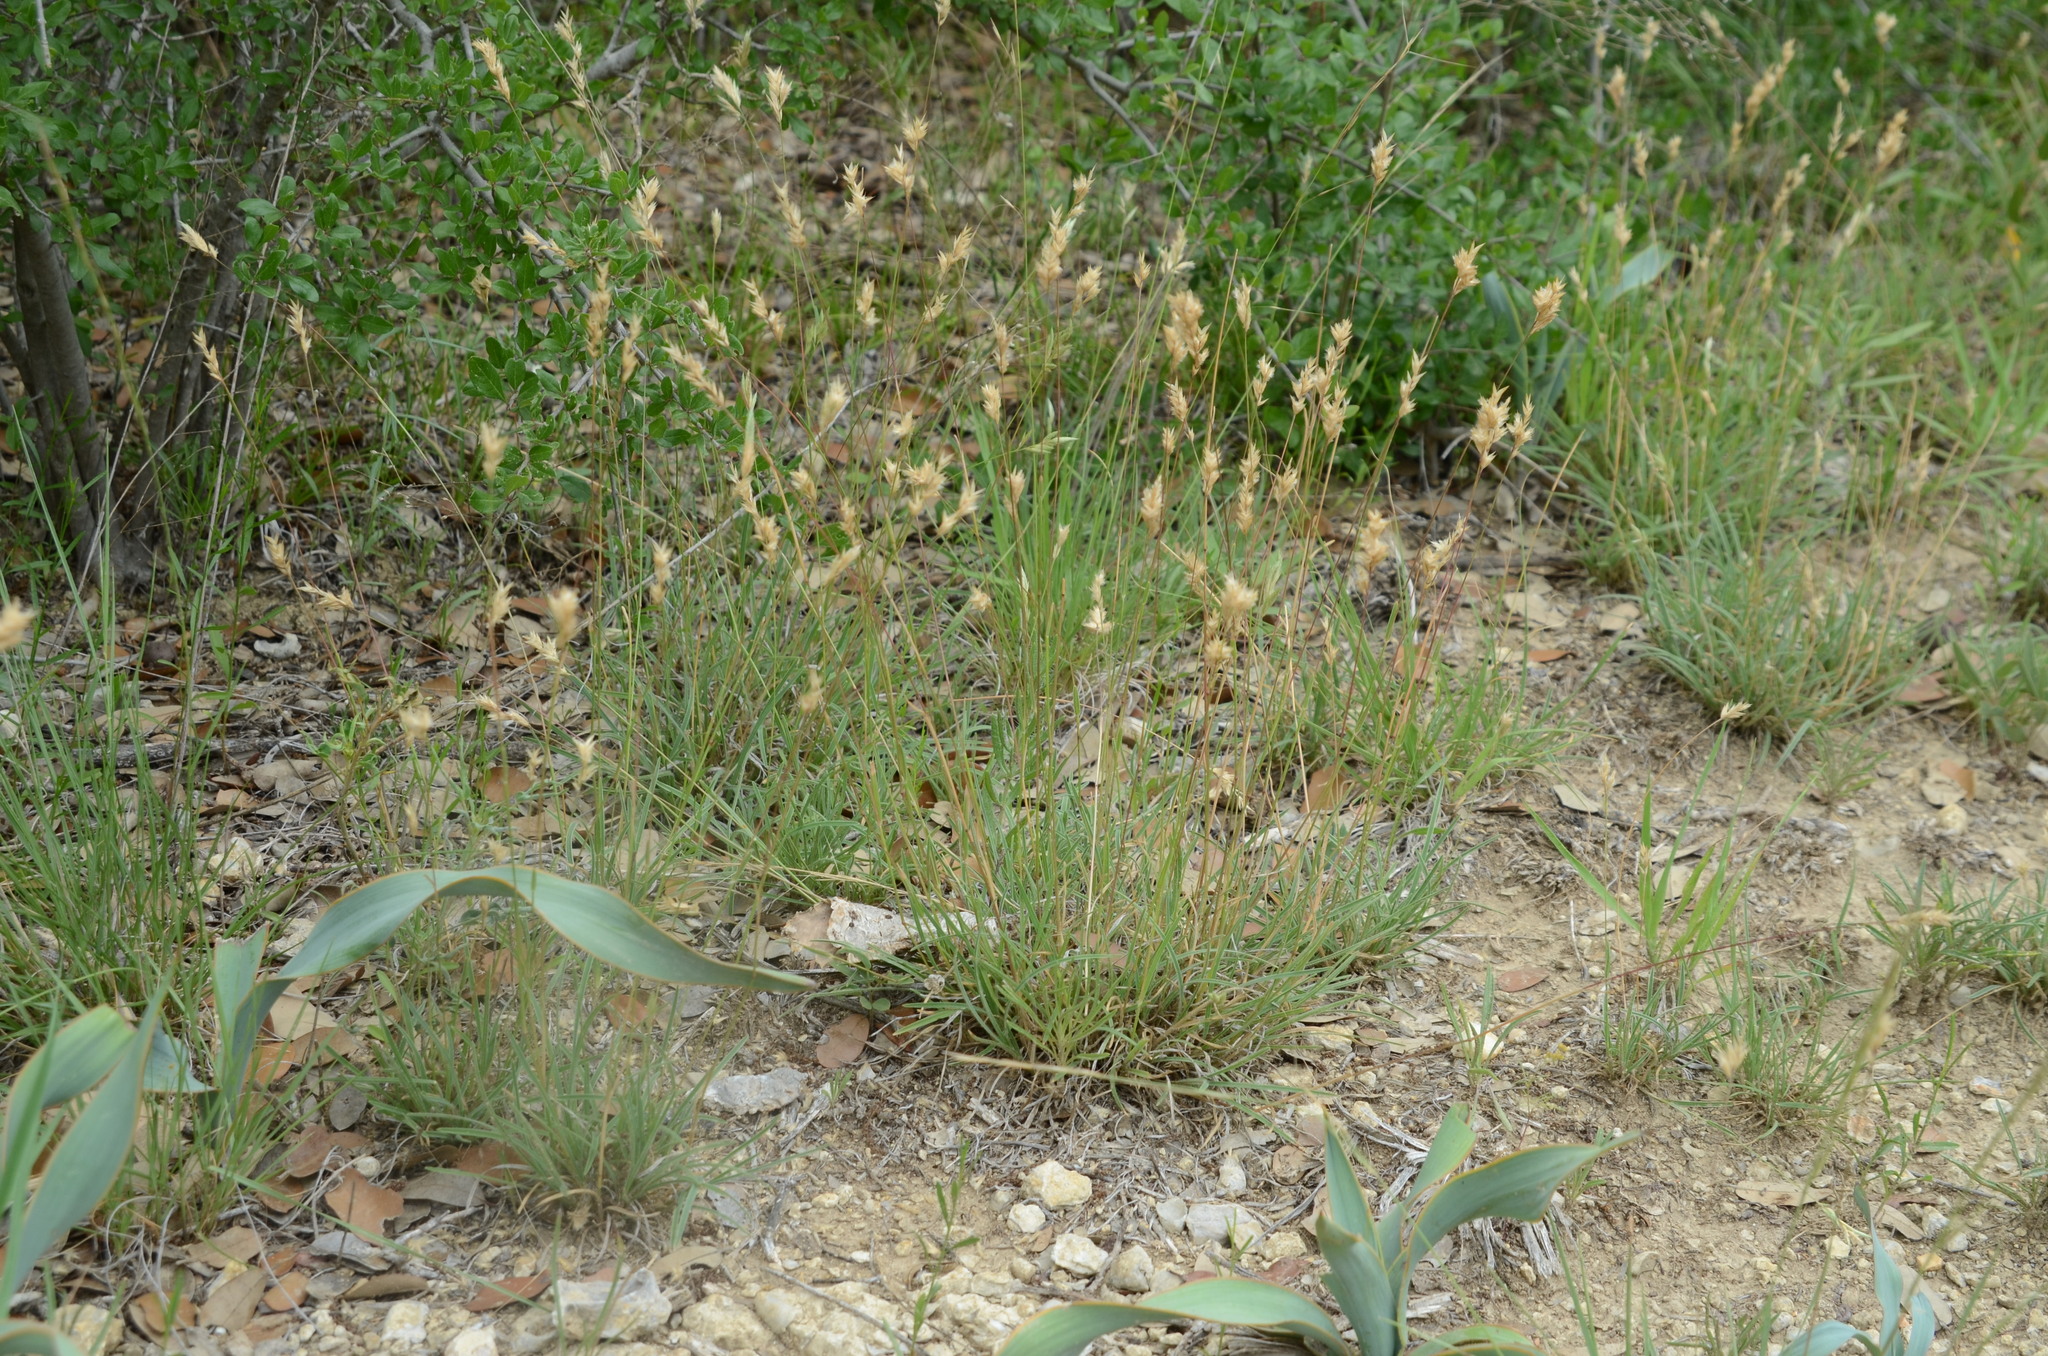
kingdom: Plantae
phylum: Tracheophyta
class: Liliopsida
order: Poales
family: Poaceae
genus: Erioneuron
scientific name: Erioneuron pilosum
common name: Hairy woolly grass
